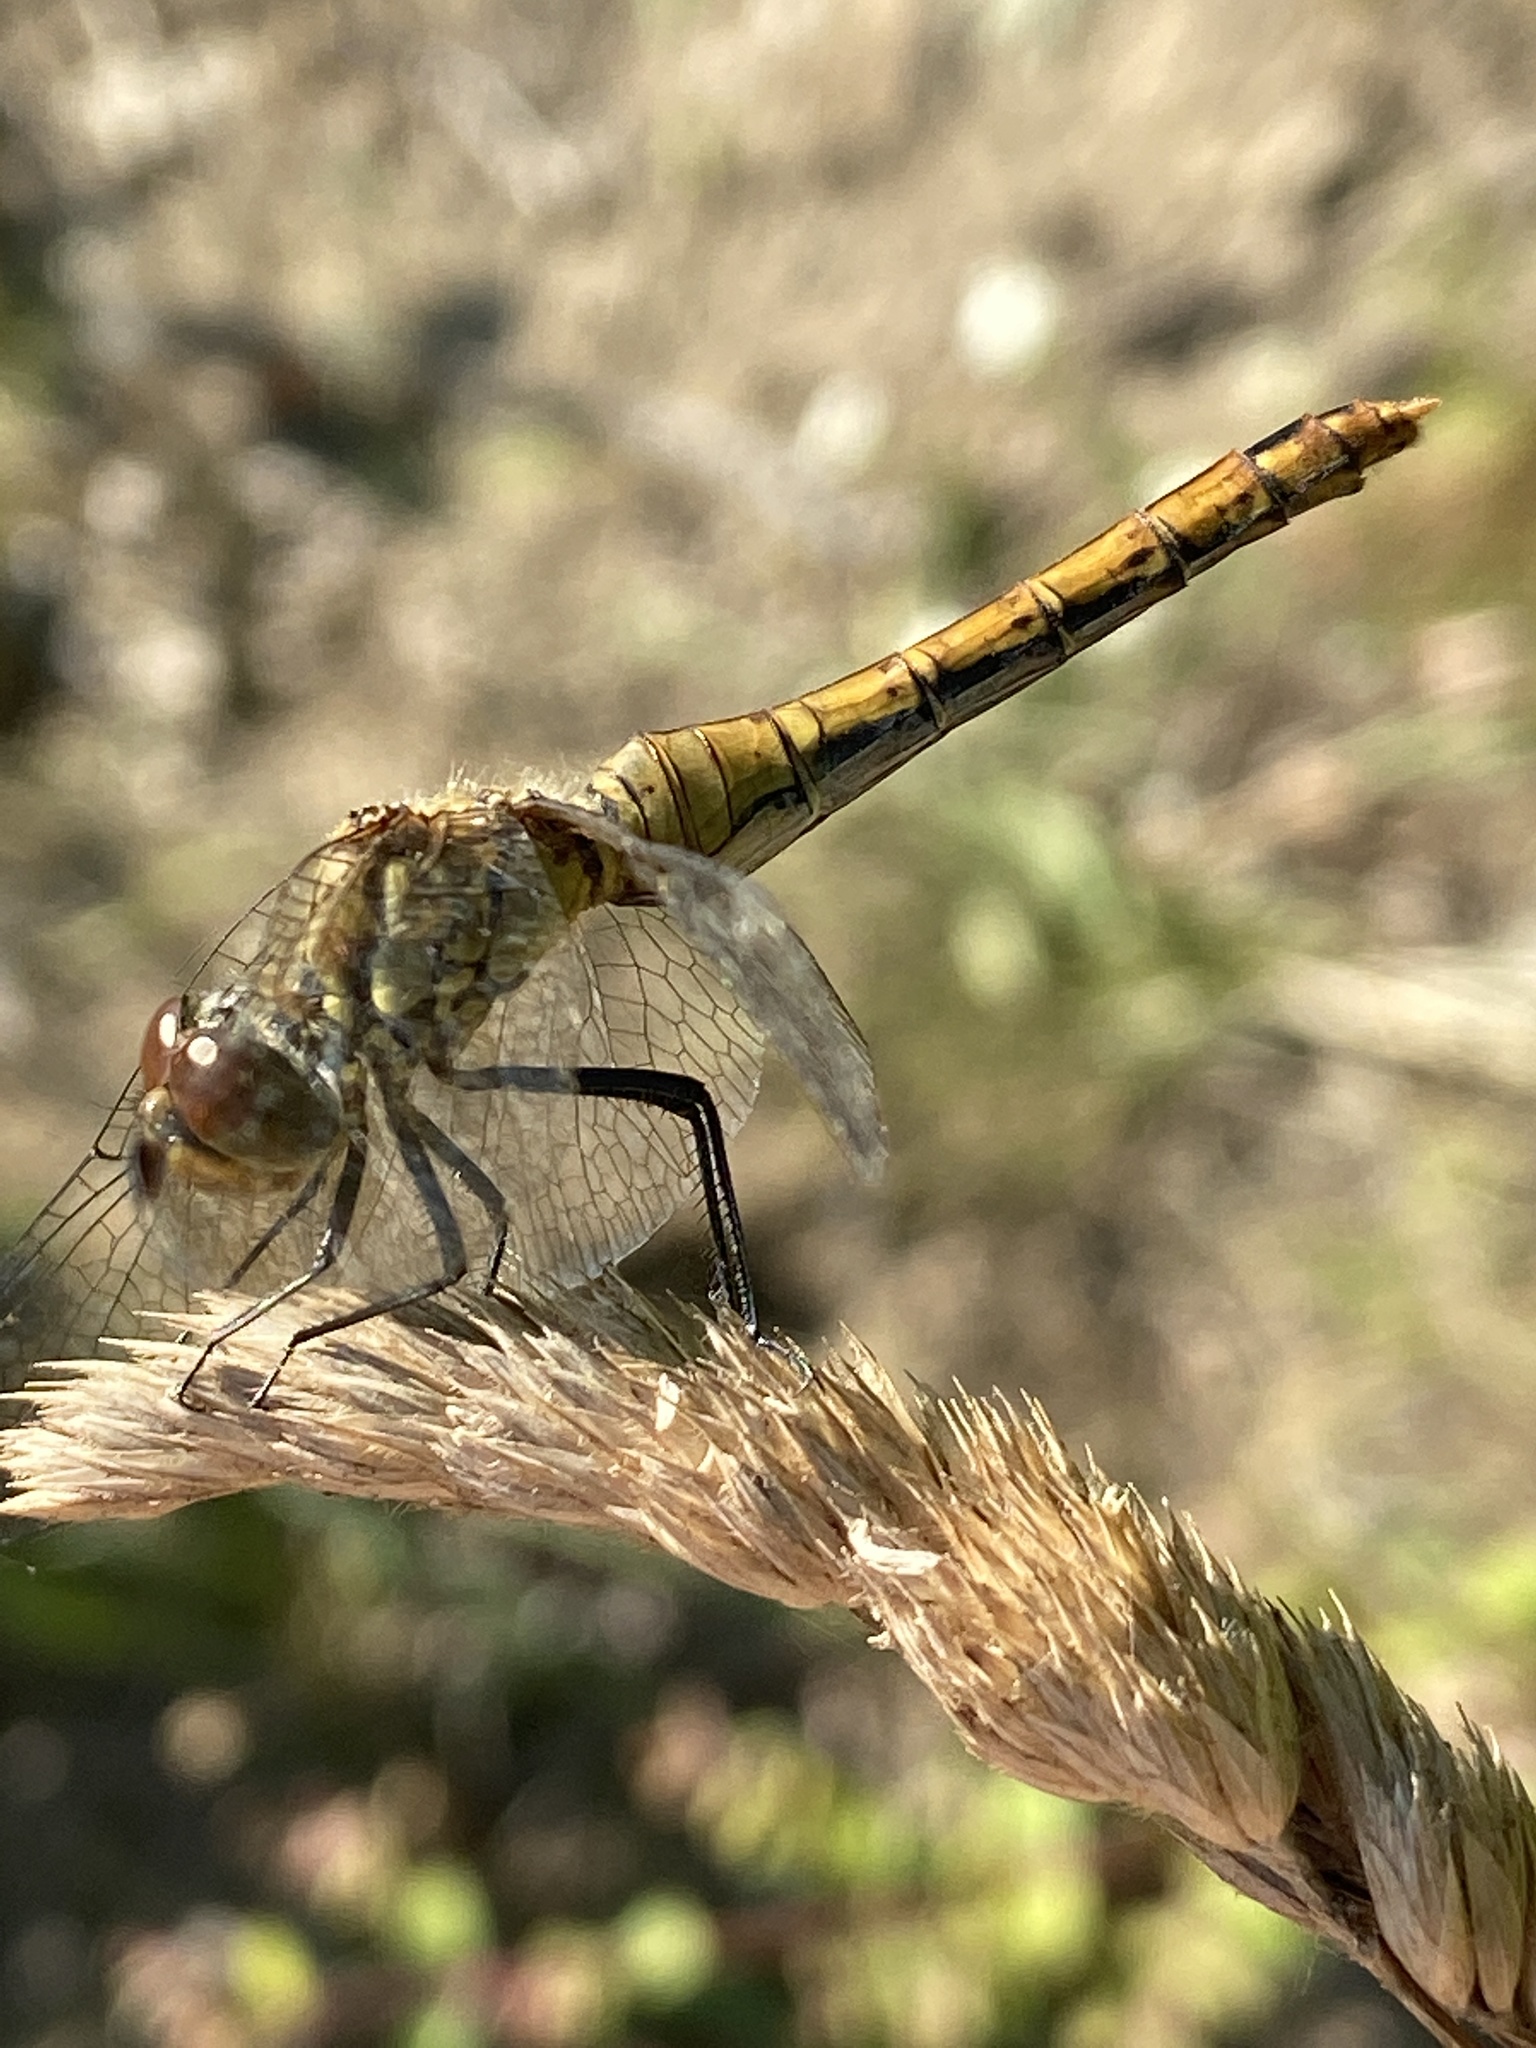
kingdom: Animalia
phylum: Arthropoda
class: Insecta
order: Odonata
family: Libellulidae
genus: Sympetrum
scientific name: Sympetrum vulgatum
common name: Vagrant darter
